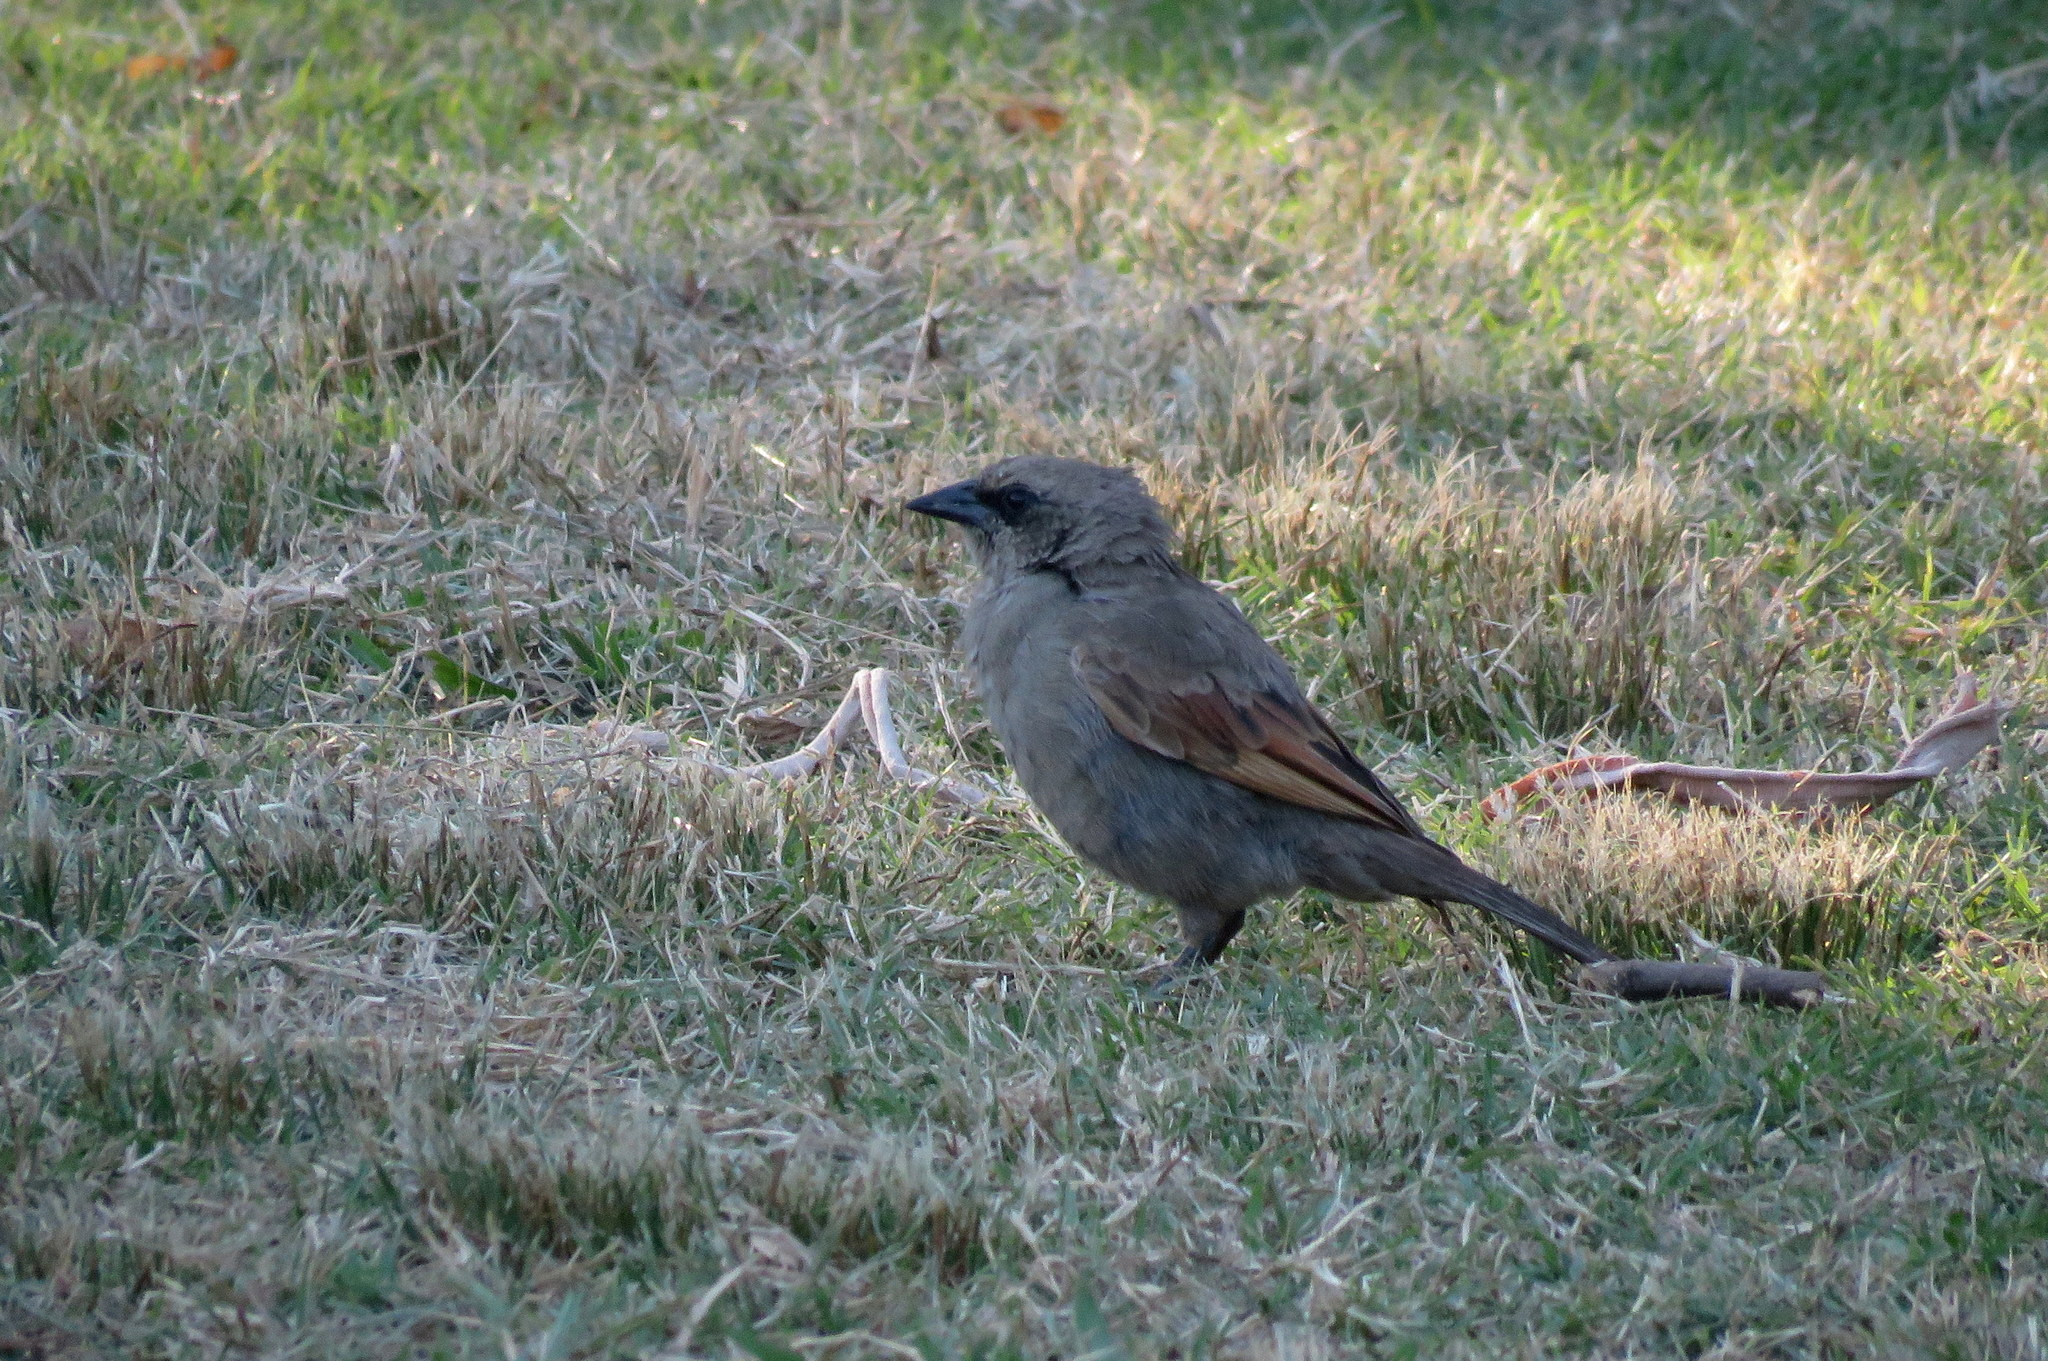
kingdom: Animalia
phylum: Chordata
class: Aves
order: Passeriformes
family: Icteridae
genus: Agelaioides
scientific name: Agelaioides badius
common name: Baywing
